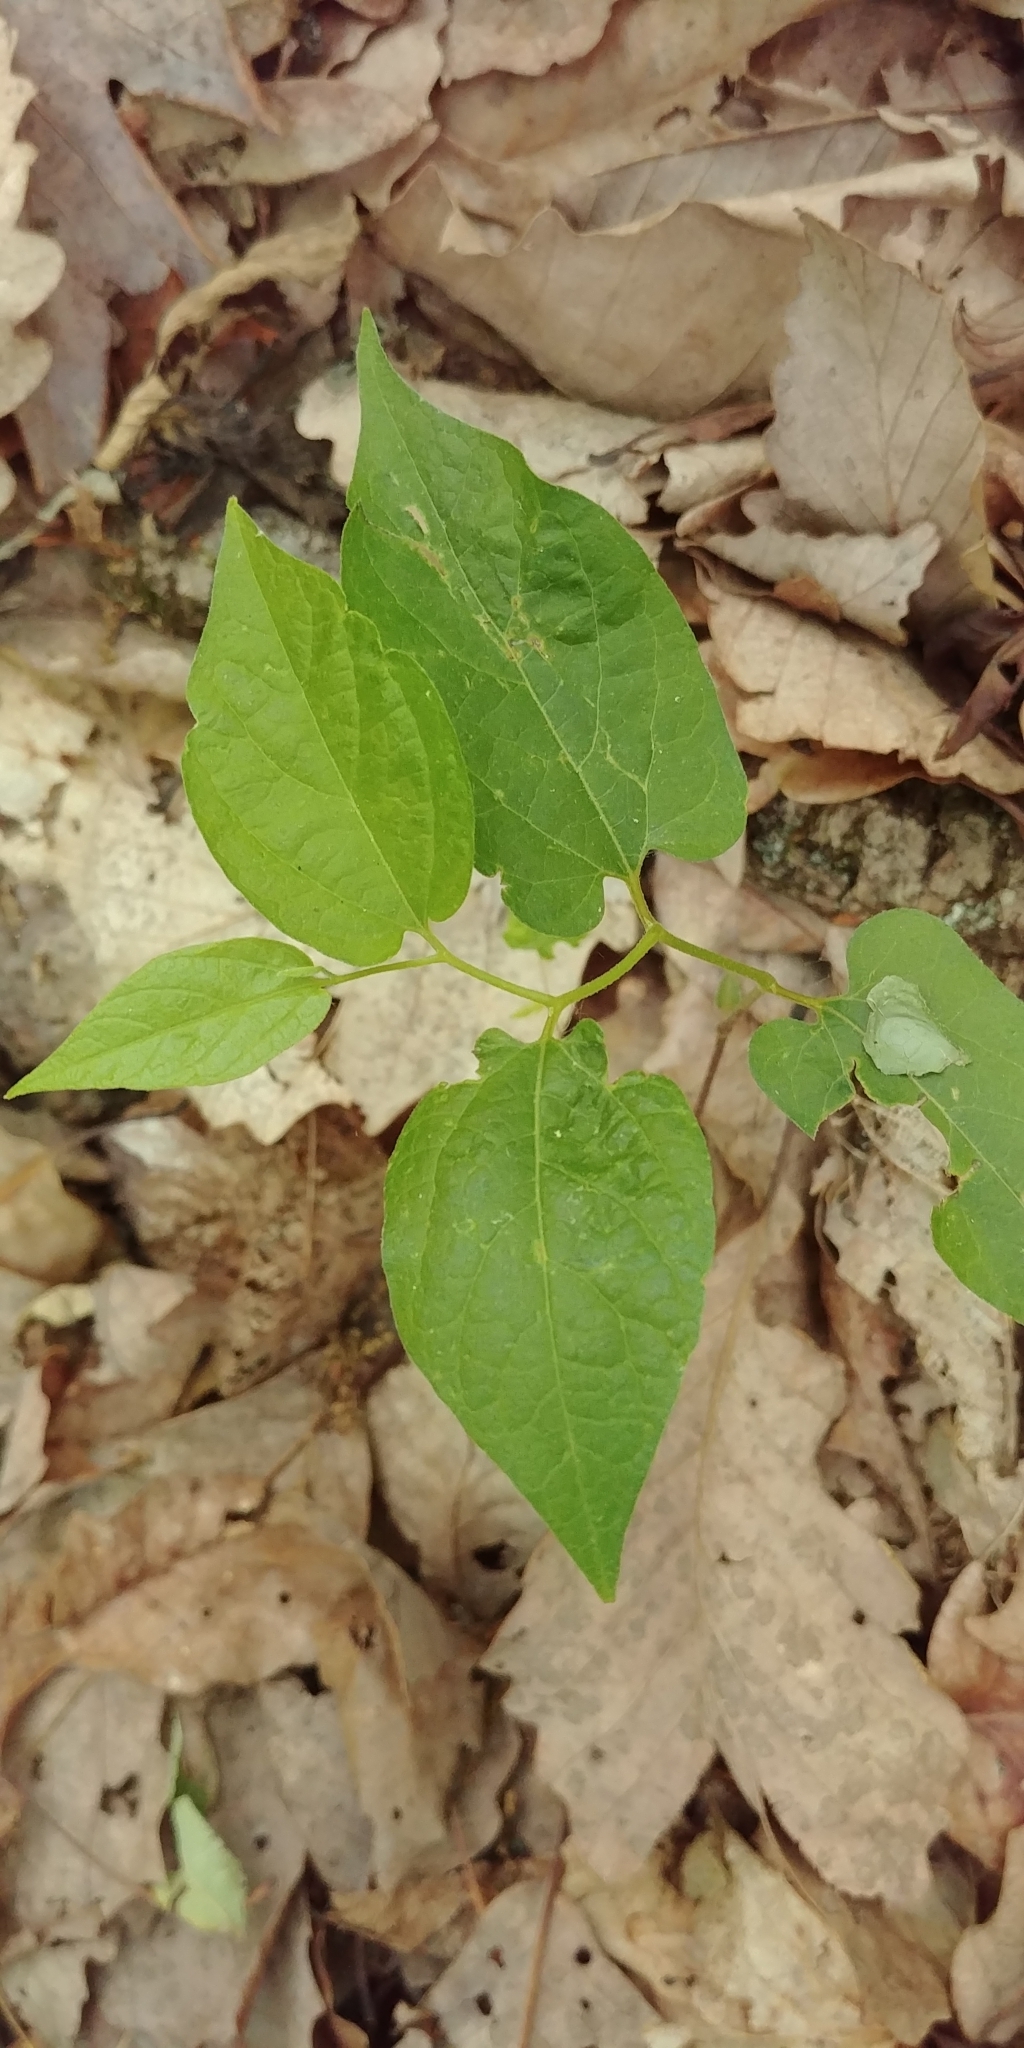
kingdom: Plantae
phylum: Tracheophyta
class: Magnoliopsida
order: Piperales
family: Aristolochiaceae
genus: Endodeca
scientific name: Endodeca serpentaria
